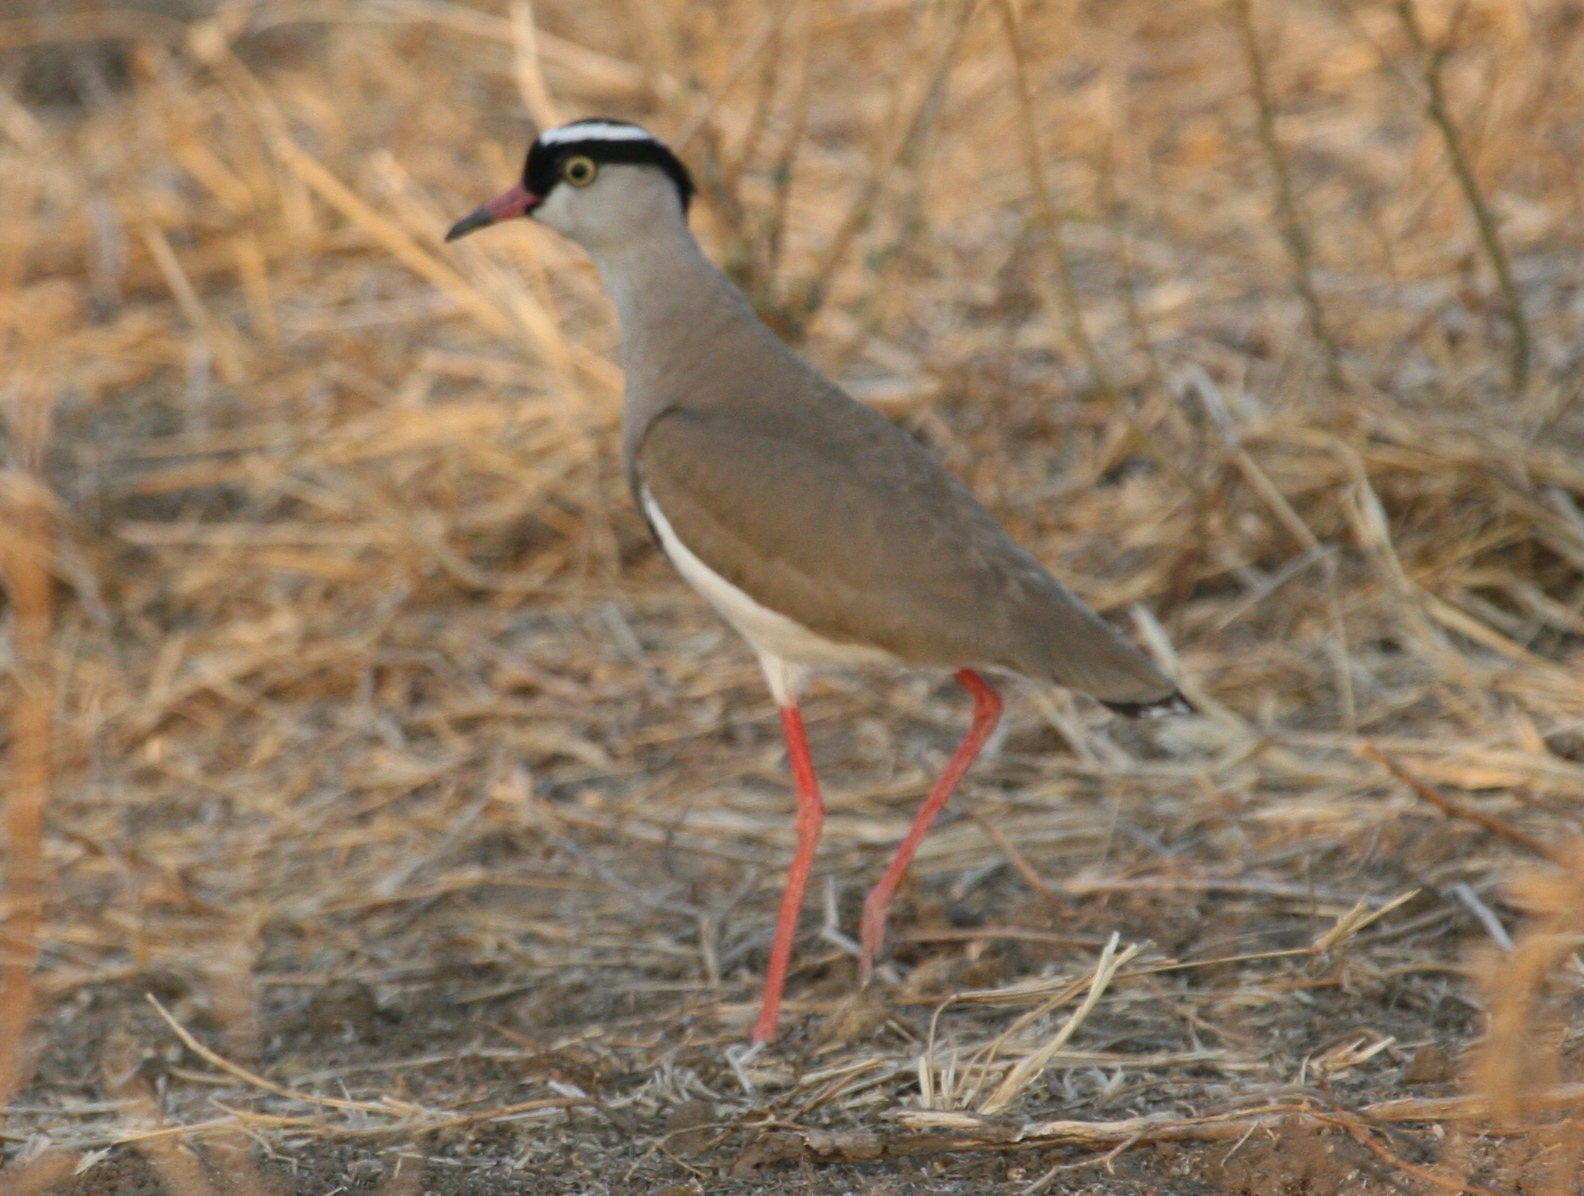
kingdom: Animalia
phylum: Chordata
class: Aves
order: Charadriiformes
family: Charadriidae
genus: Vanellus
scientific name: Vanellus coronatus
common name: Crowned lapwing
